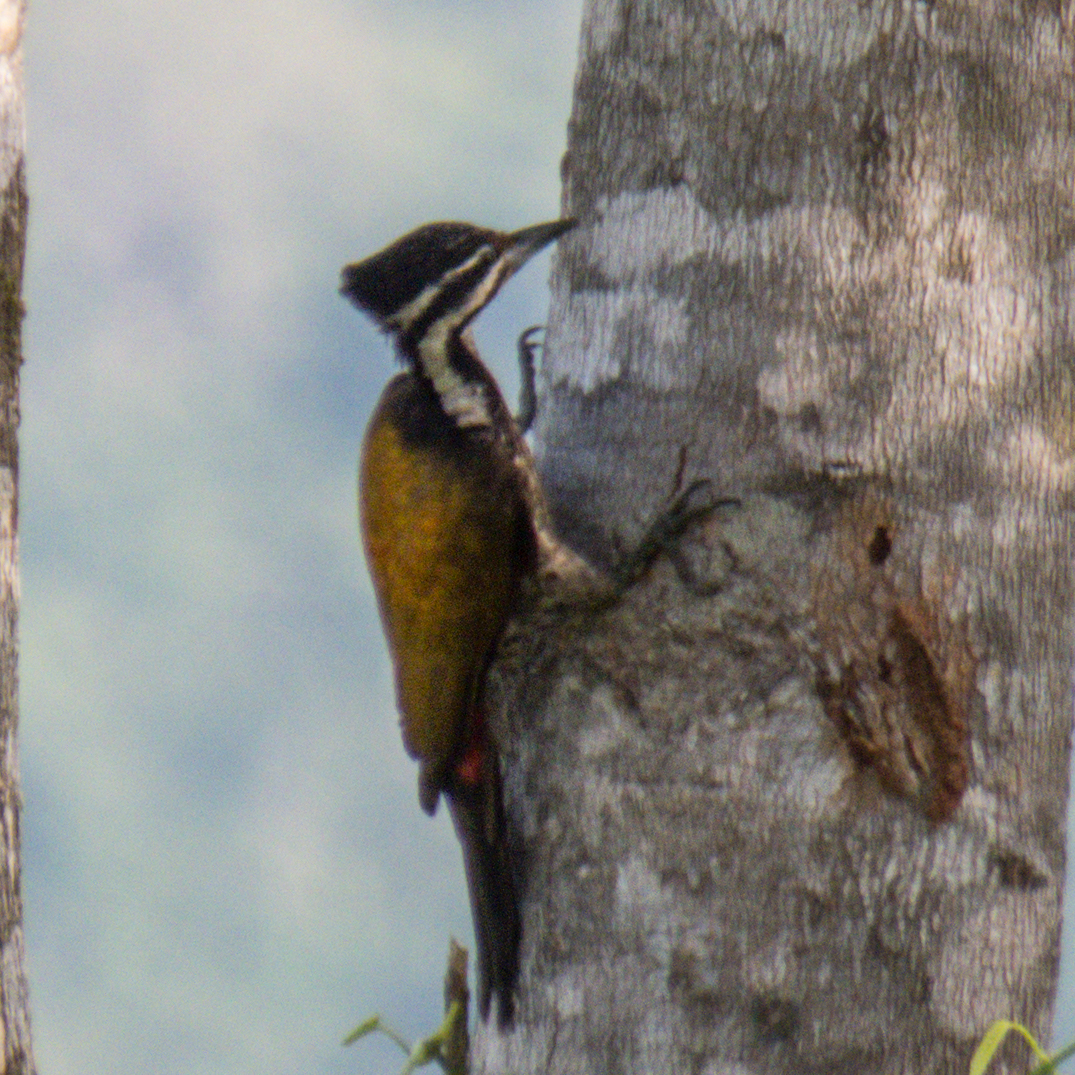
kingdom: Animalia
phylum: Chordata
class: Aves
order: Piciformes
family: Picidae
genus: Dinopium
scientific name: Dinopium javanense
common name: Common flameback
